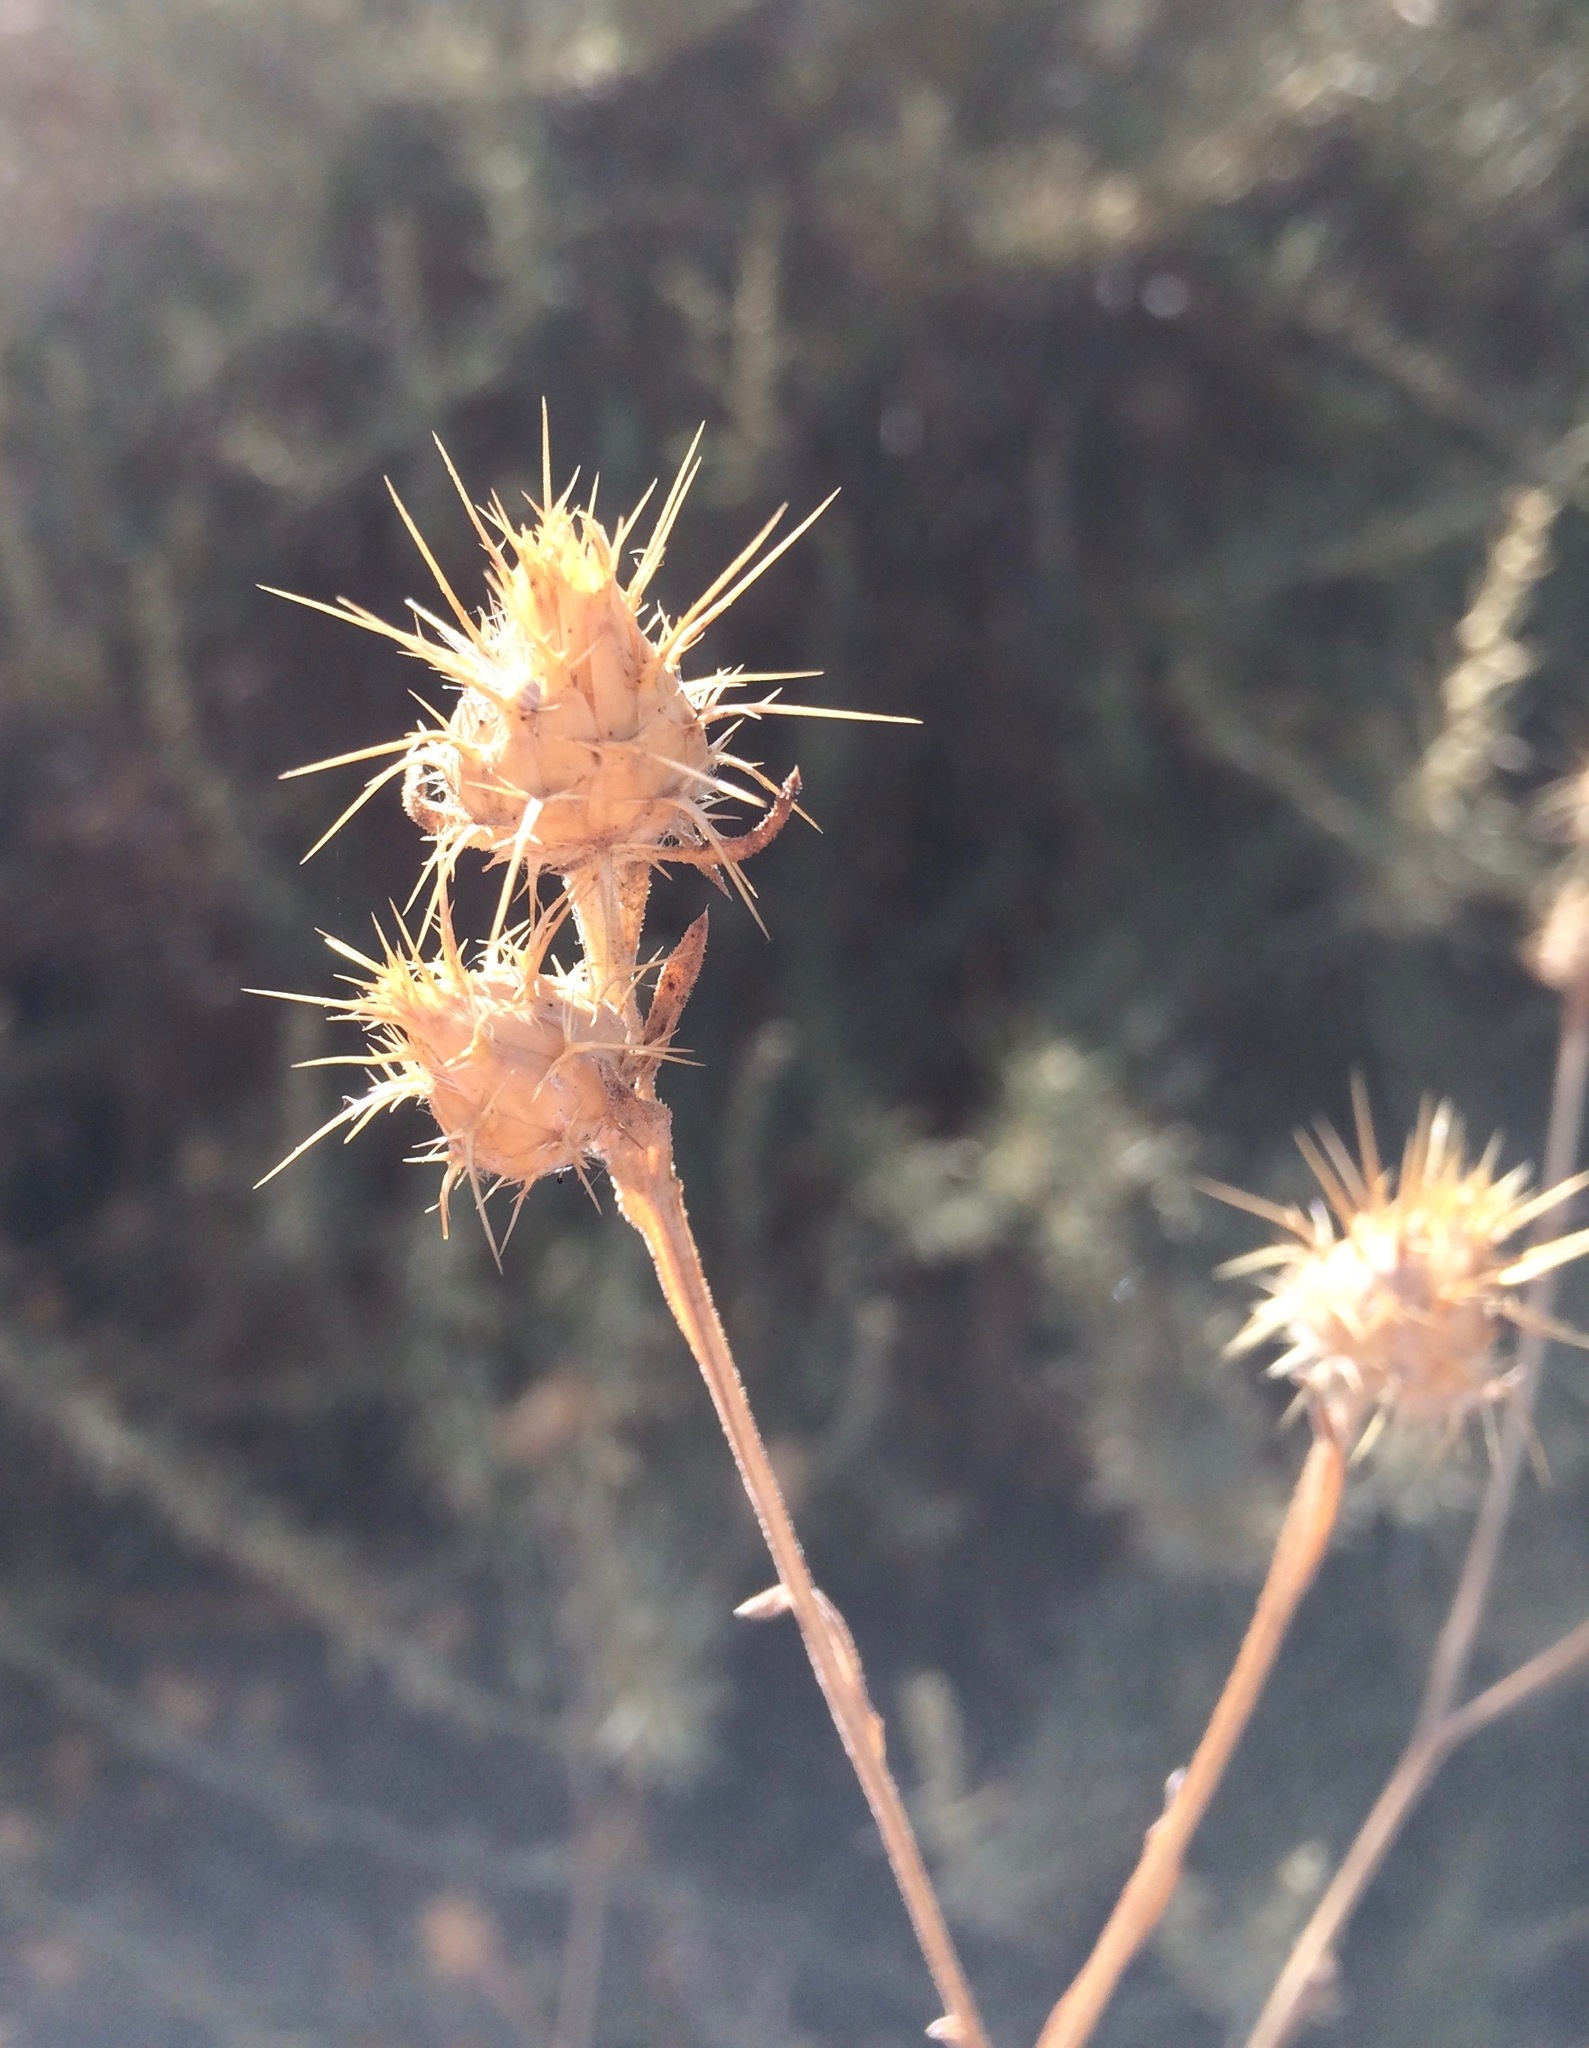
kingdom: Plantae
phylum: Tracheophyta
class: Magnoliopsida
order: Asterales
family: Asteraceae
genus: Centaurea
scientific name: Centaurea melitensis
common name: Maltese star-thistle
